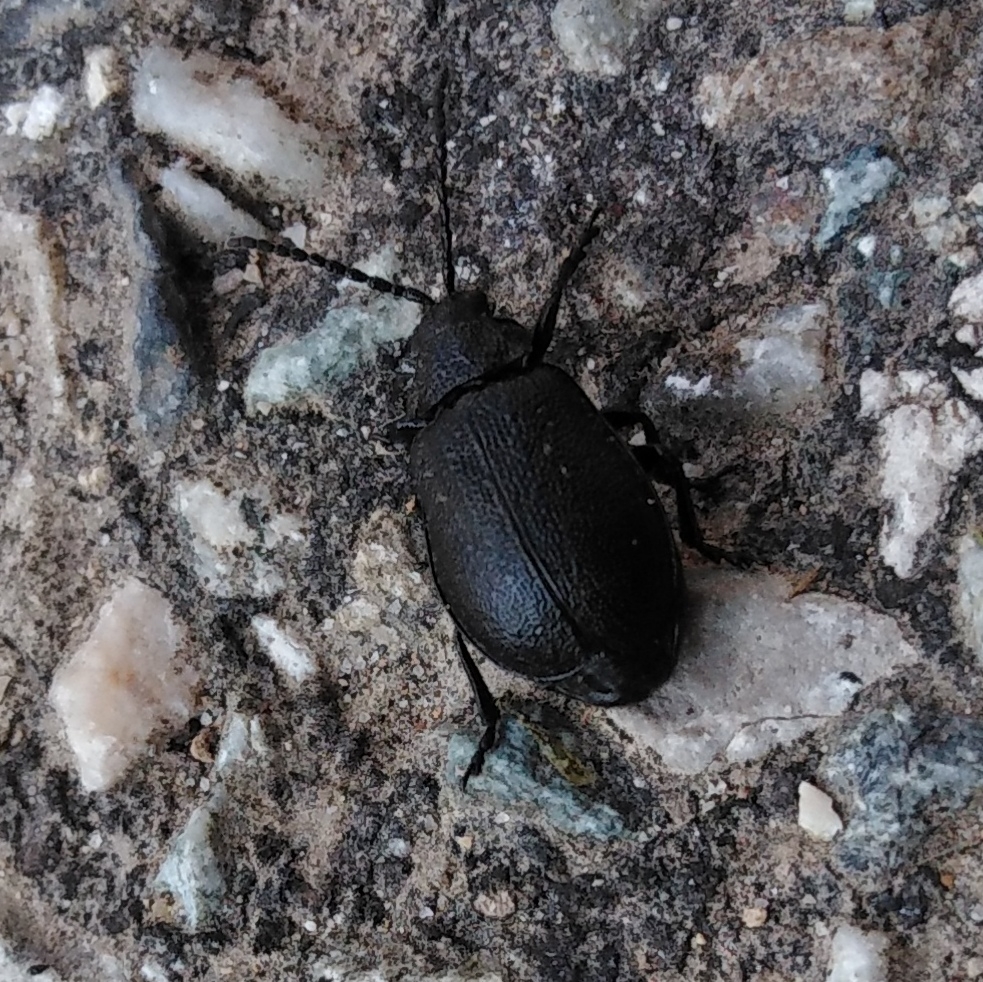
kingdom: Animalia
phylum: Arthropoda
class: Insecta
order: Coleoptera
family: Chrysomelidae
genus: Galeruca
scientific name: Galeruca tanaceti
